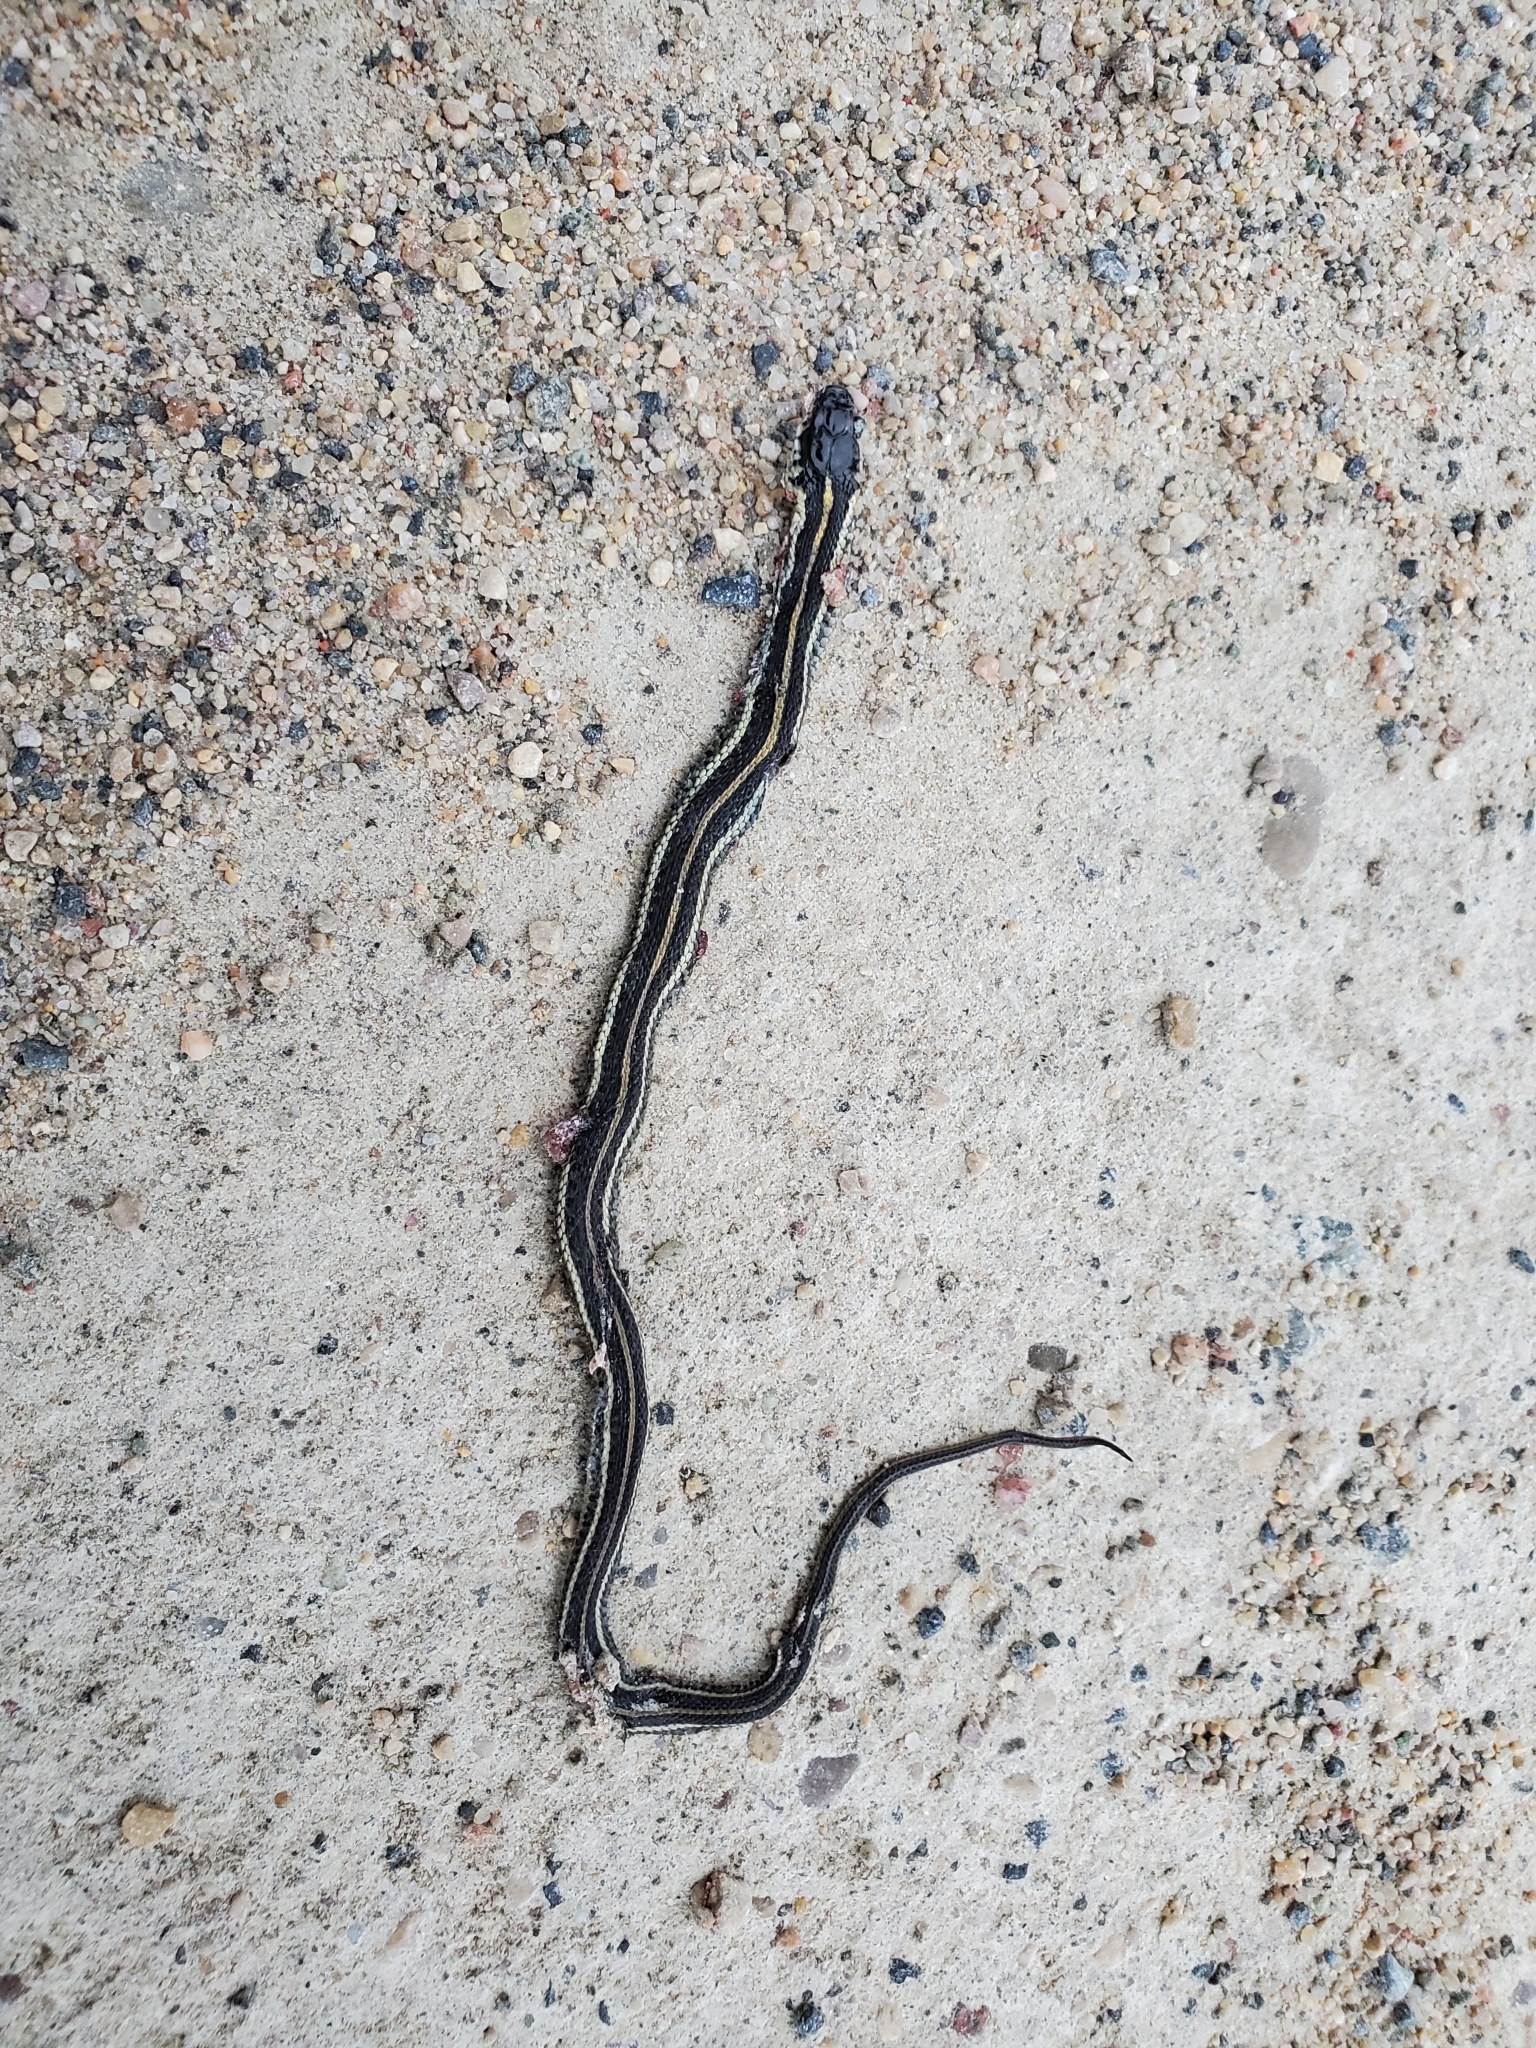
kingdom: Animalia
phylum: Chordata
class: Squamata
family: Colubridae
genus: Thamnophis
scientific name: Thamnophis sirtalis
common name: Common garter snake
